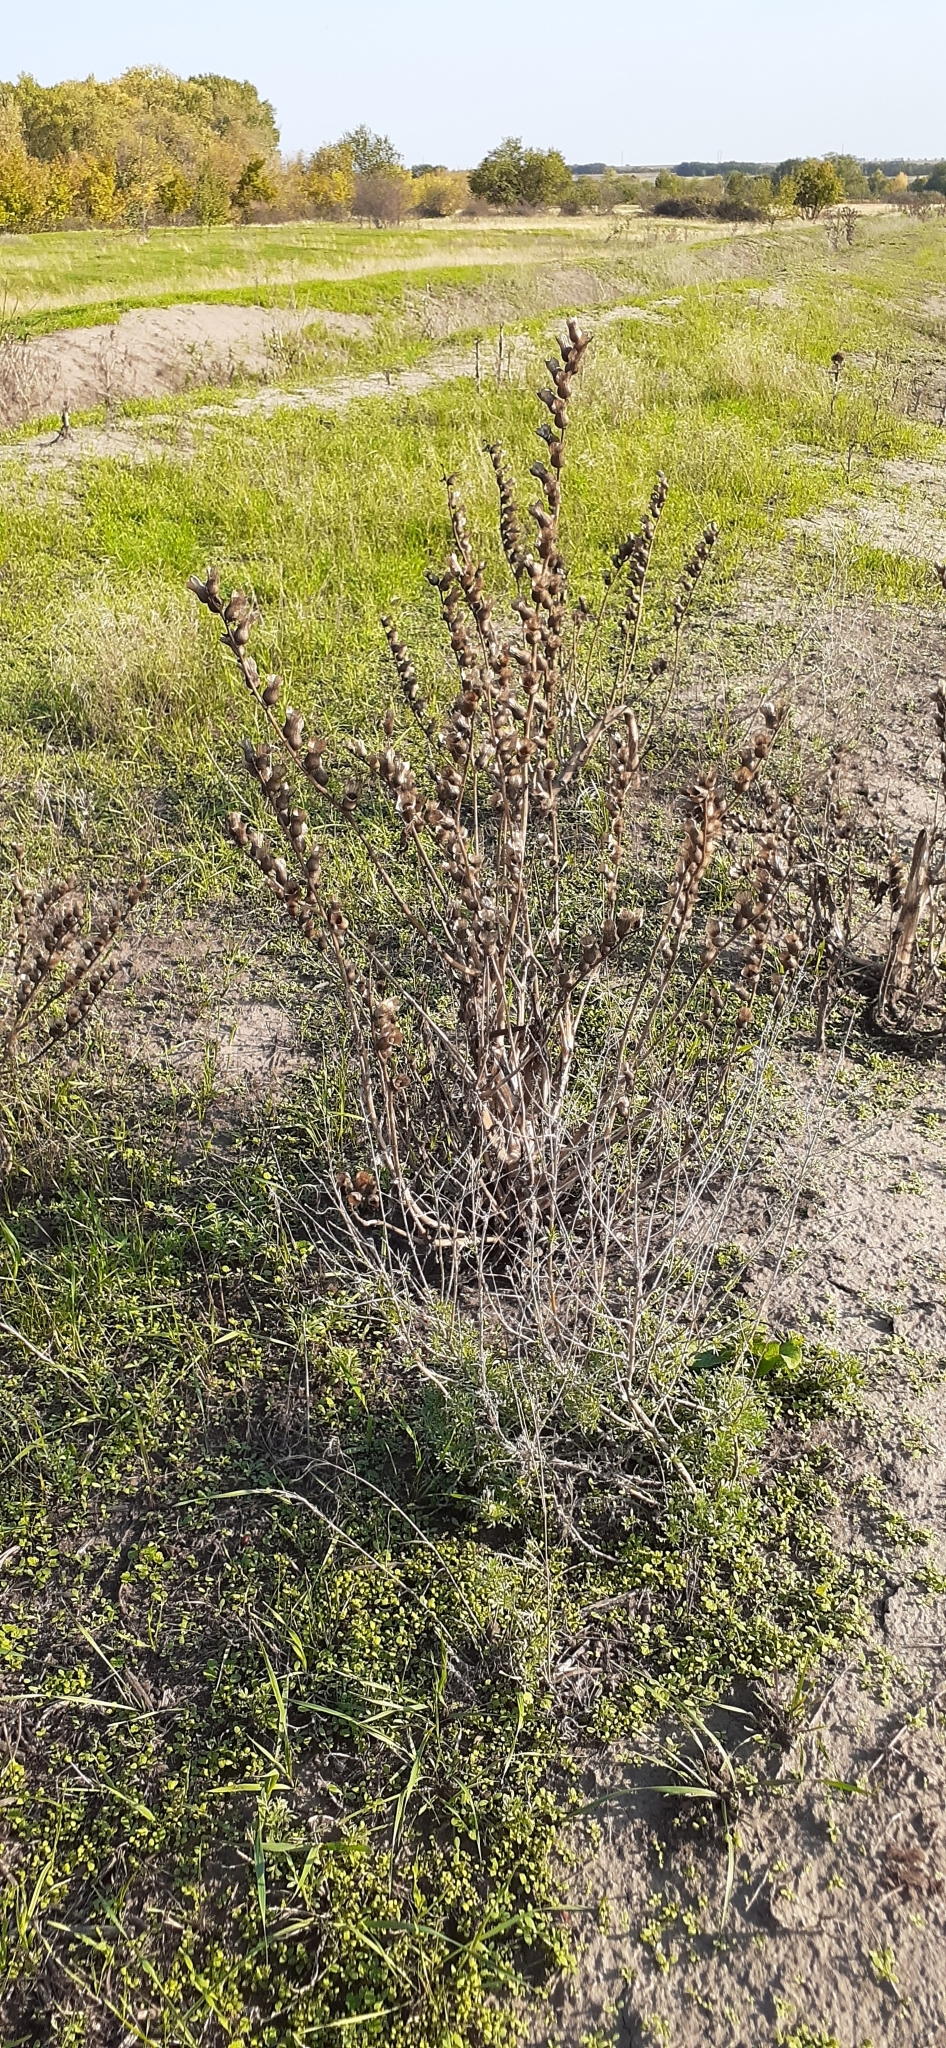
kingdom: Plantae
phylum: Tracheophyta
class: Magnoliopsida
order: Solanales
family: Solanaceae
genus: Hyoscyamus
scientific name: Hyoscyamus niger
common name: Henbane
